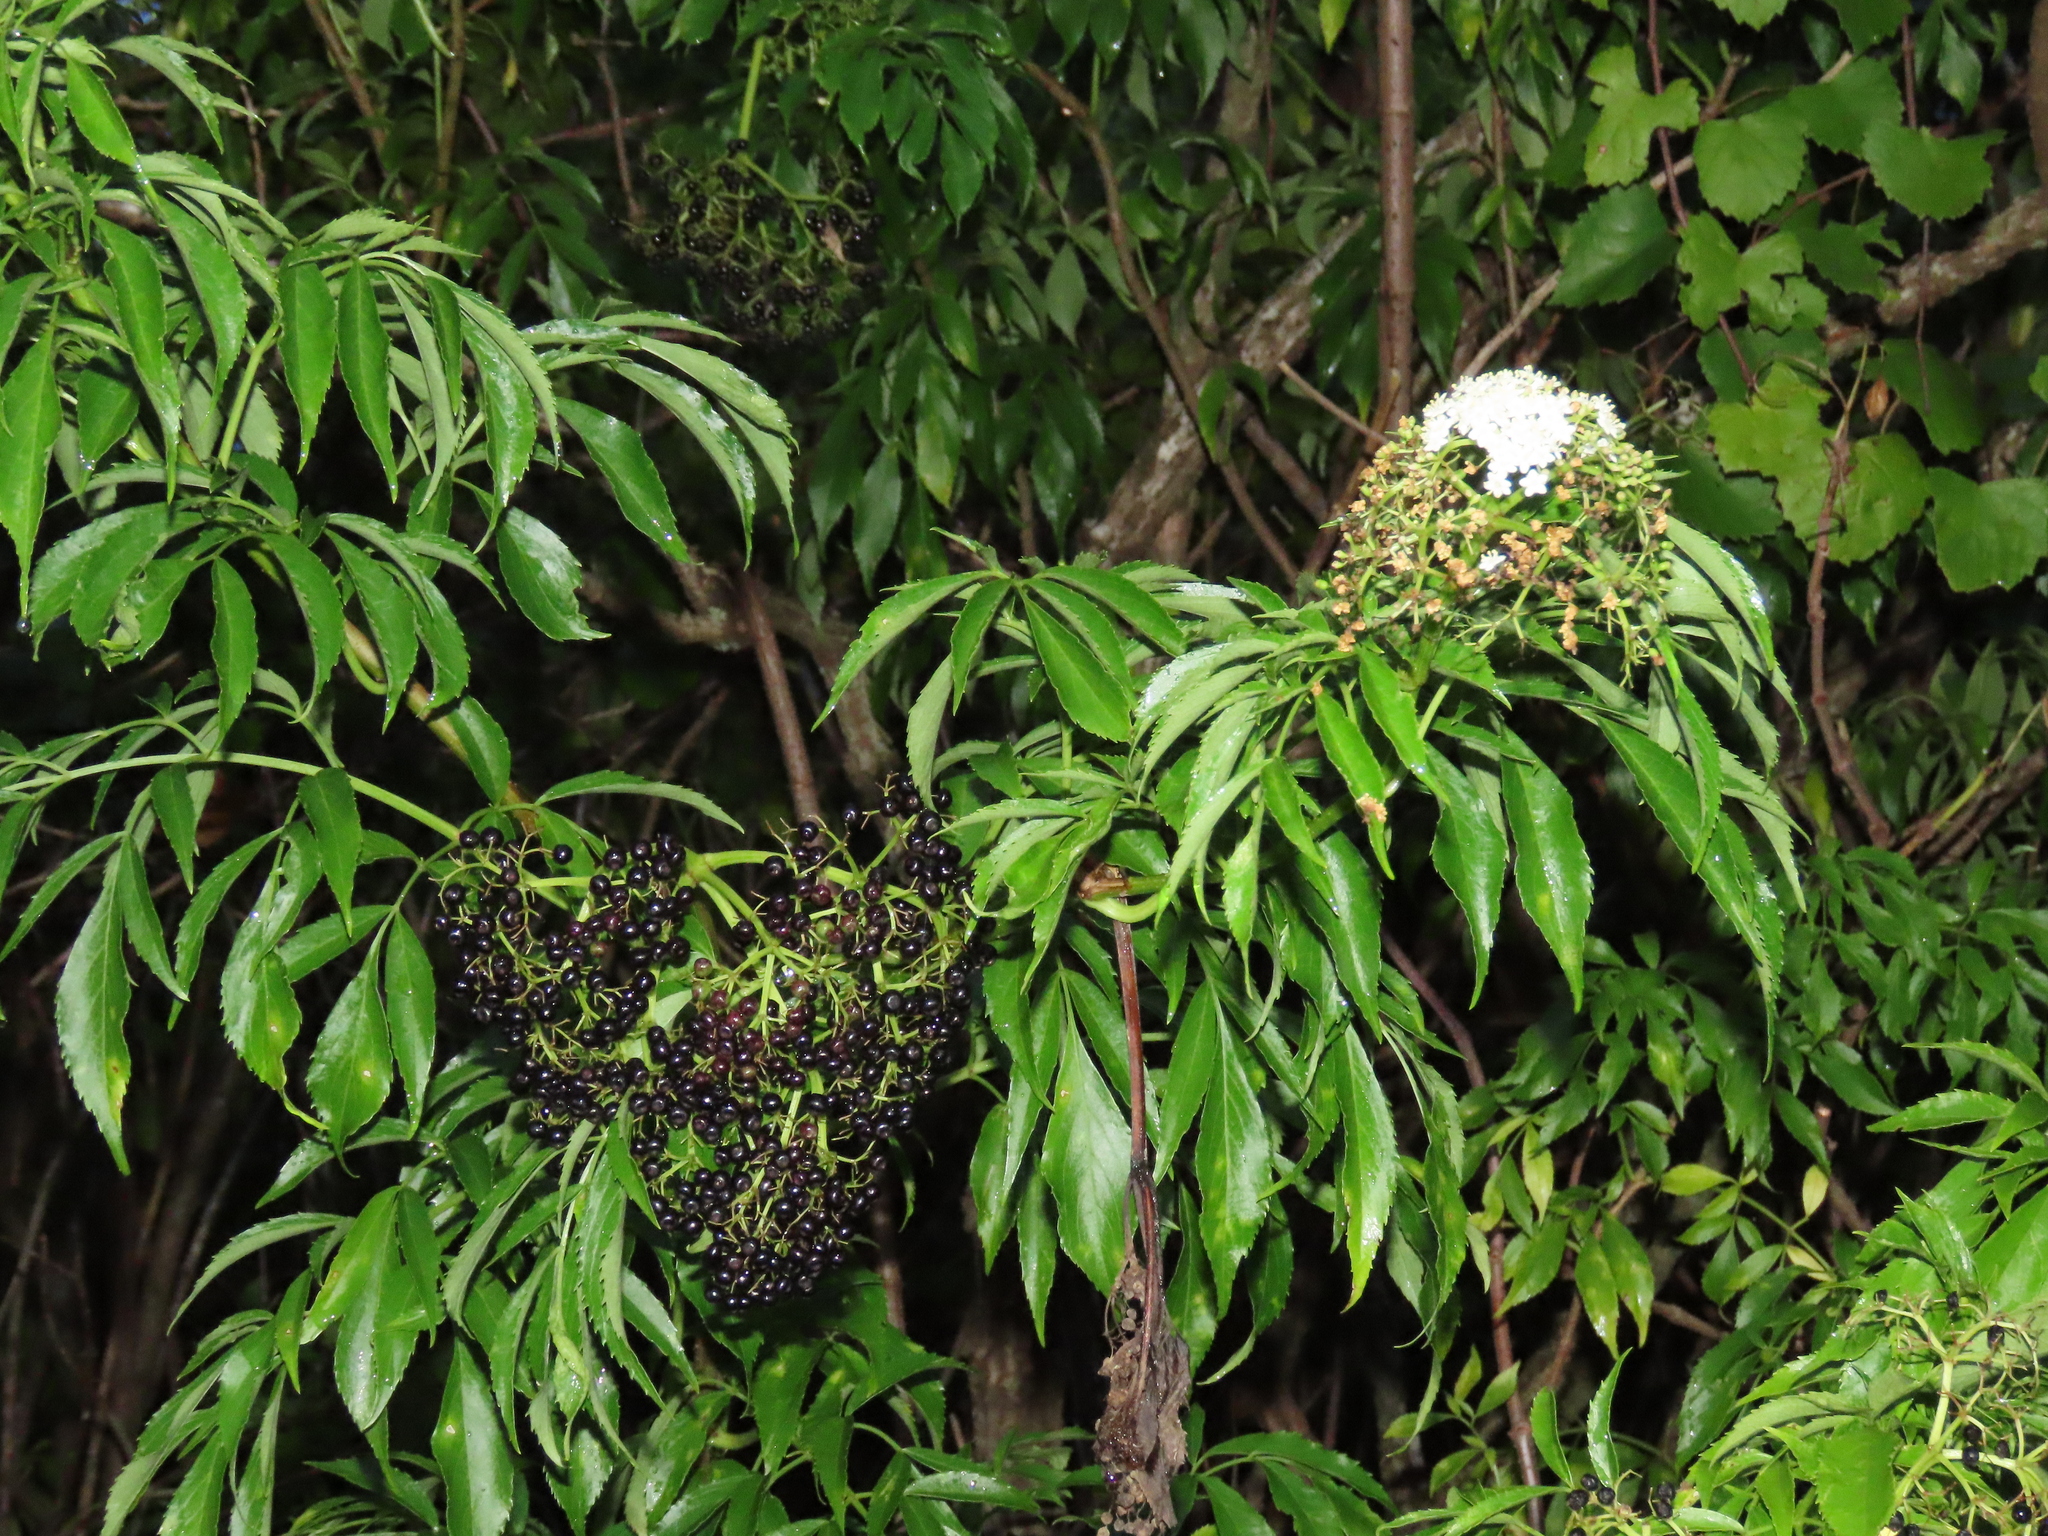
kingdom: Plantae
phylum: Tracheophyta
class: Magnoliopsida
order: Dipsacales
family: Viburnaceae
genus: Sambucus
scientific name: Sambucus canadensis
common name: American elder
